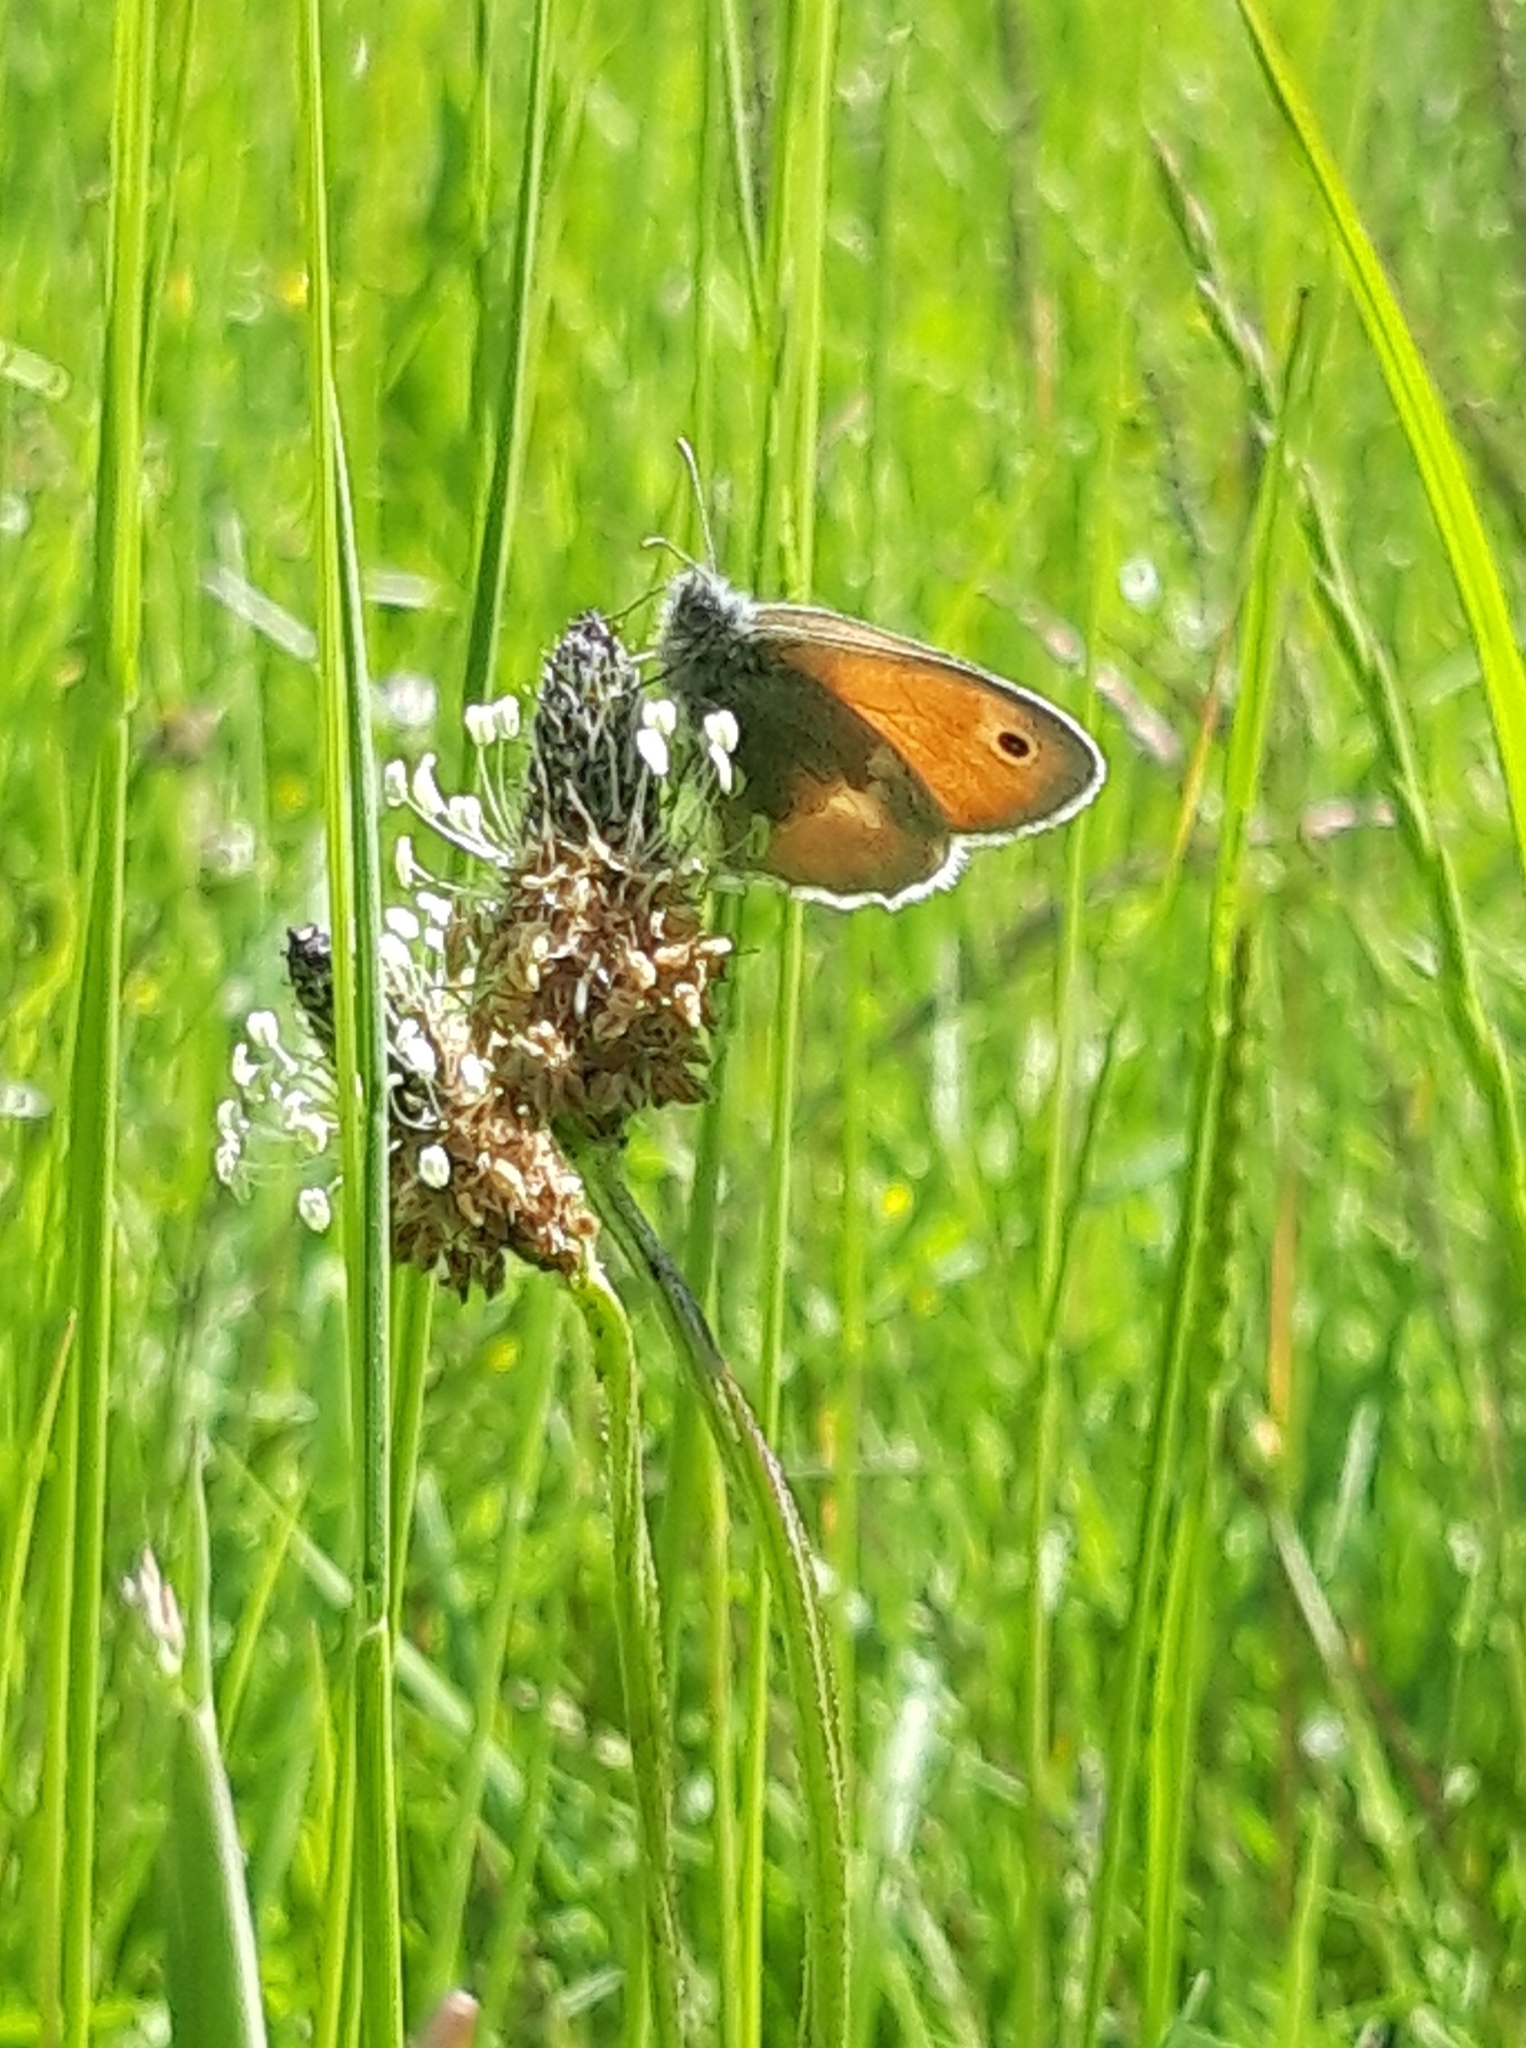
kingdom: Animalia
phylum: Arthropoda
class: Insecta
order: Lepidoptera
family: Nymphalidae
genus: Coenonympha
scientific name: Coenonympha pamphilus
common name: Small heath
